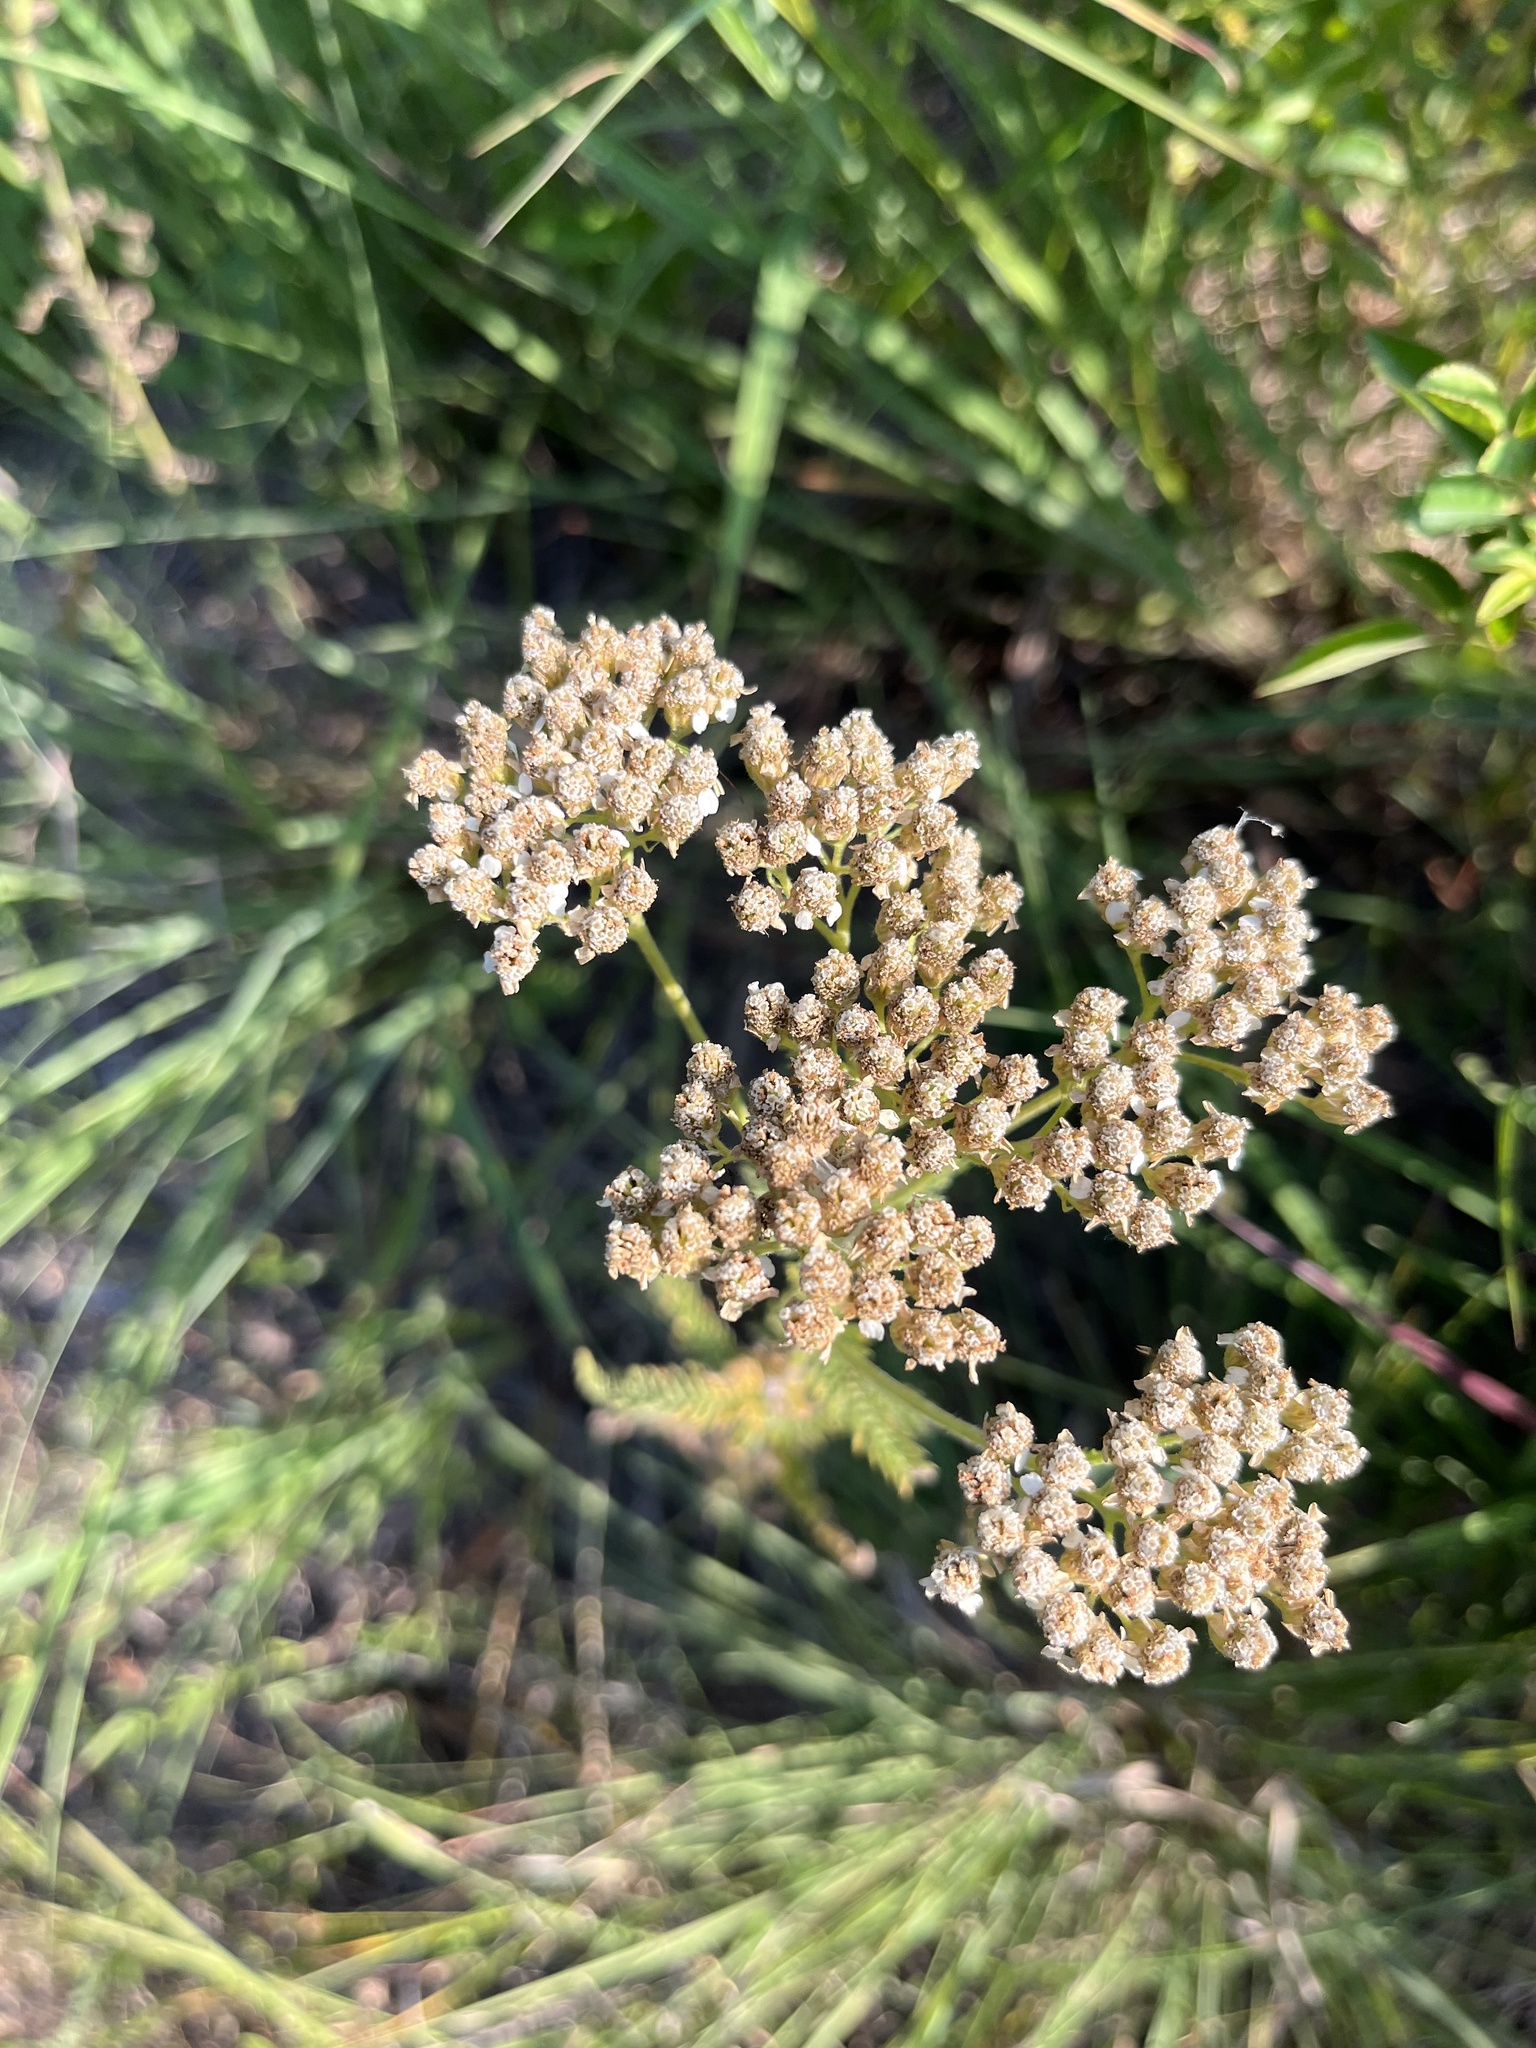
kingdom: Plantae
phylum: Tracheophyta
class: Magnoliopsida
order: Asterales
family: Asteraceae
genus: Achillea
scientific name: Achillea millefolium
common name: Yarrow
